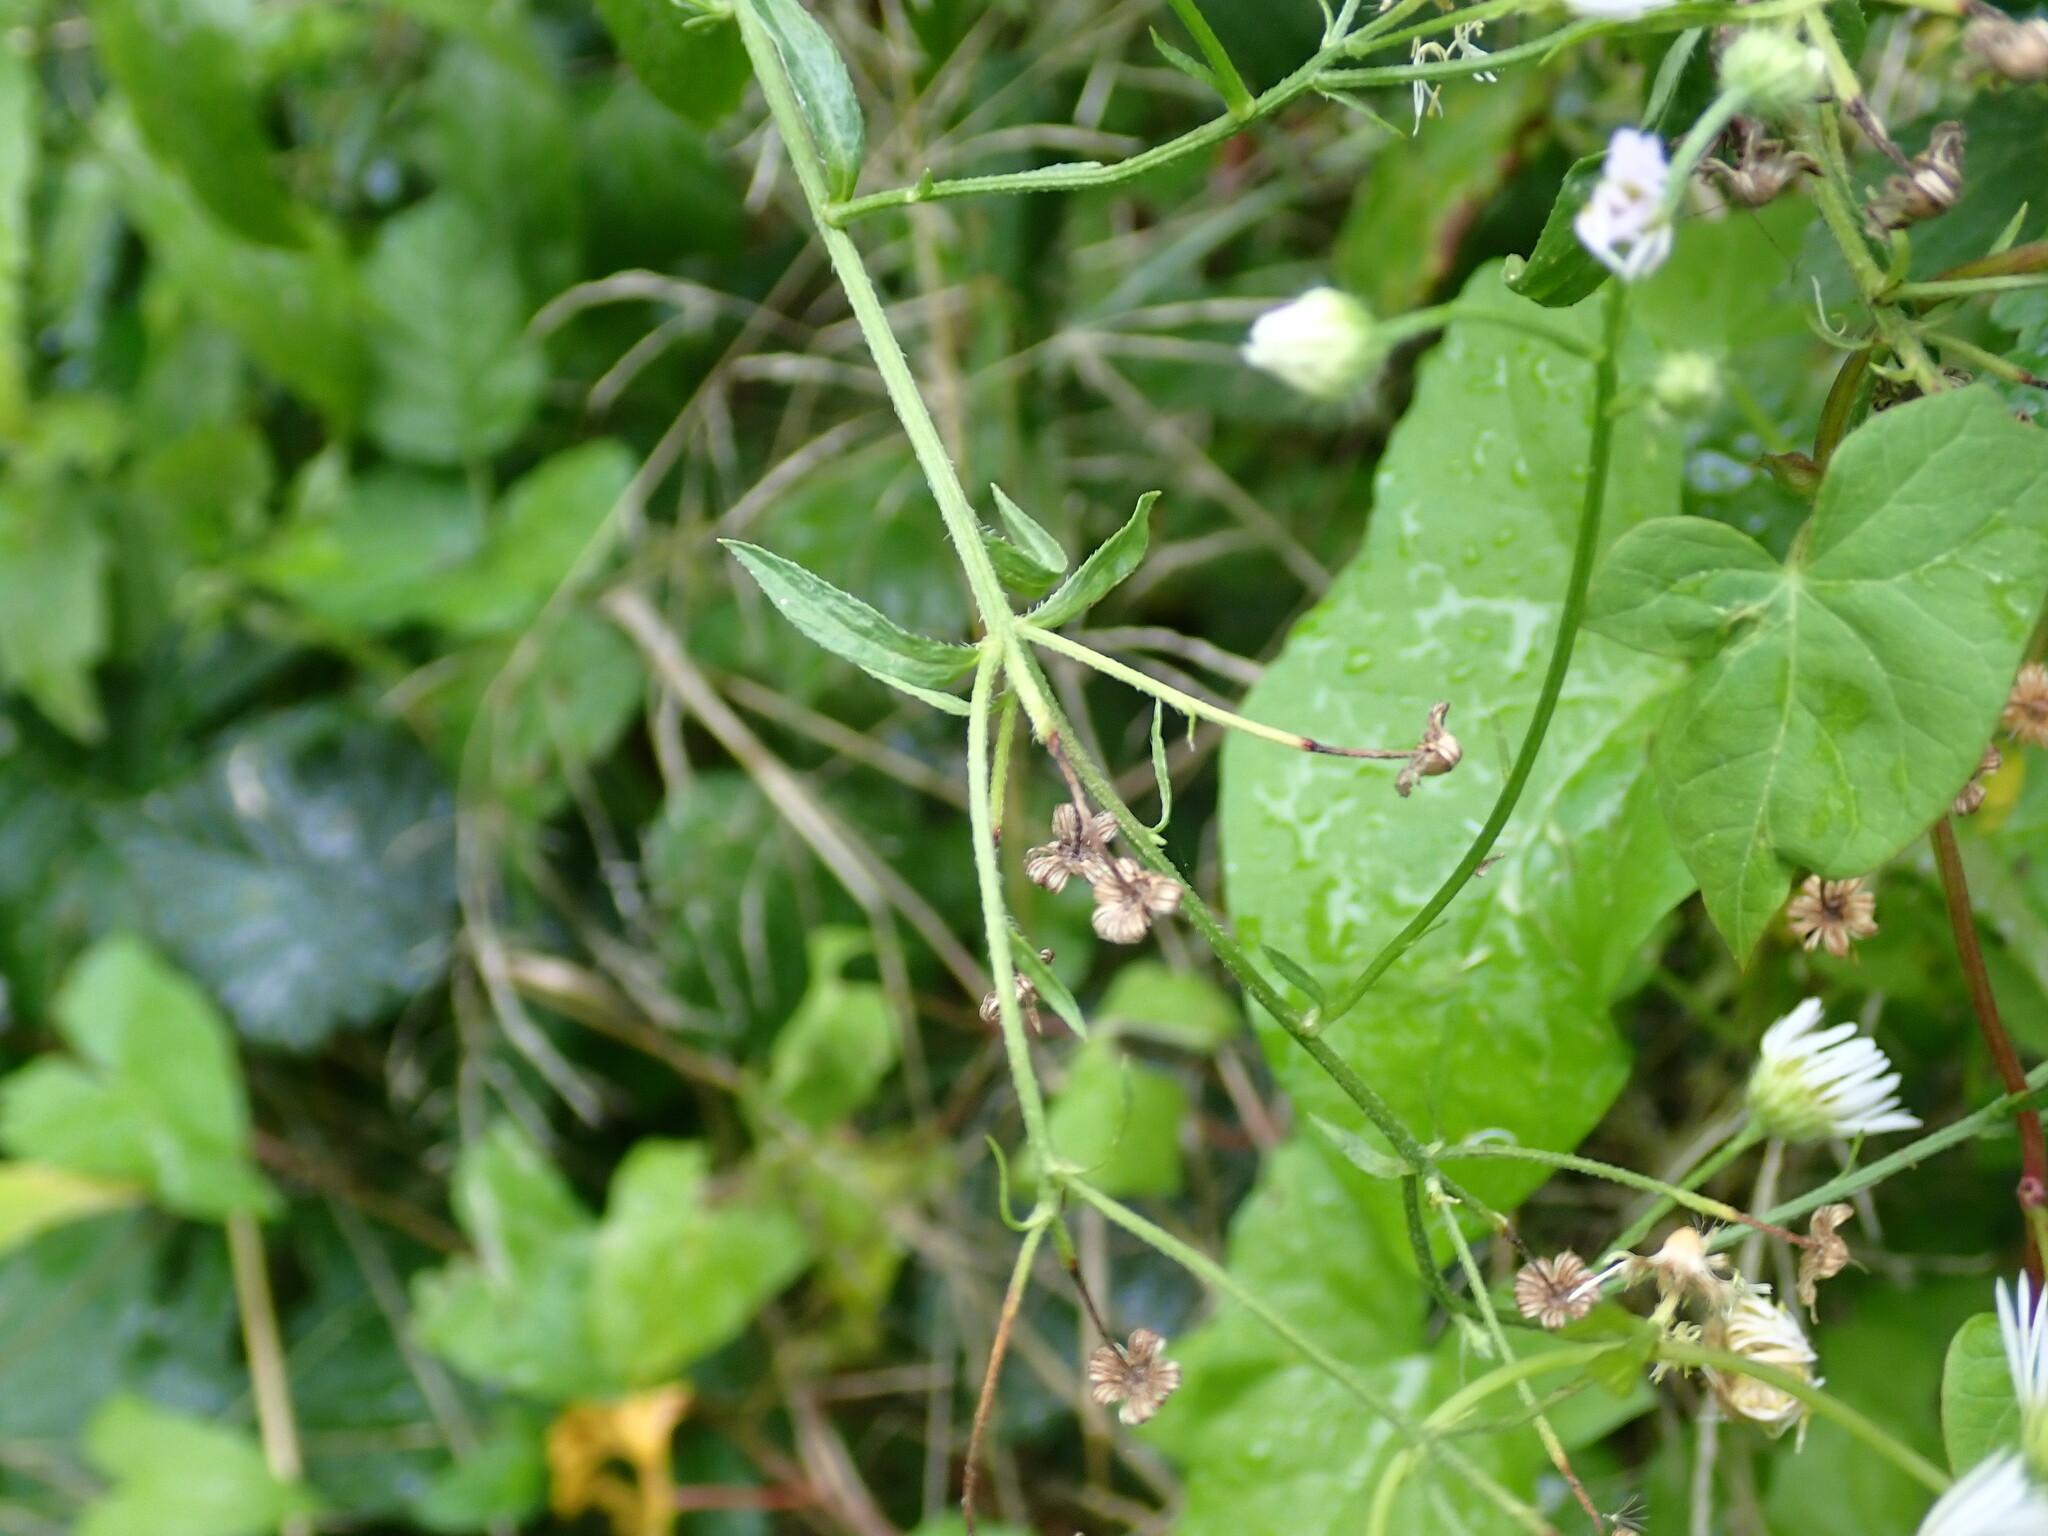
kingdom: Plantae
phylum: Tracheophyta
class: Magnoliopsida
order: Asterales
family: Asteraceae
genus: Erigeron
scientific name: Erigeron annuus
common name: Tall fleabane
